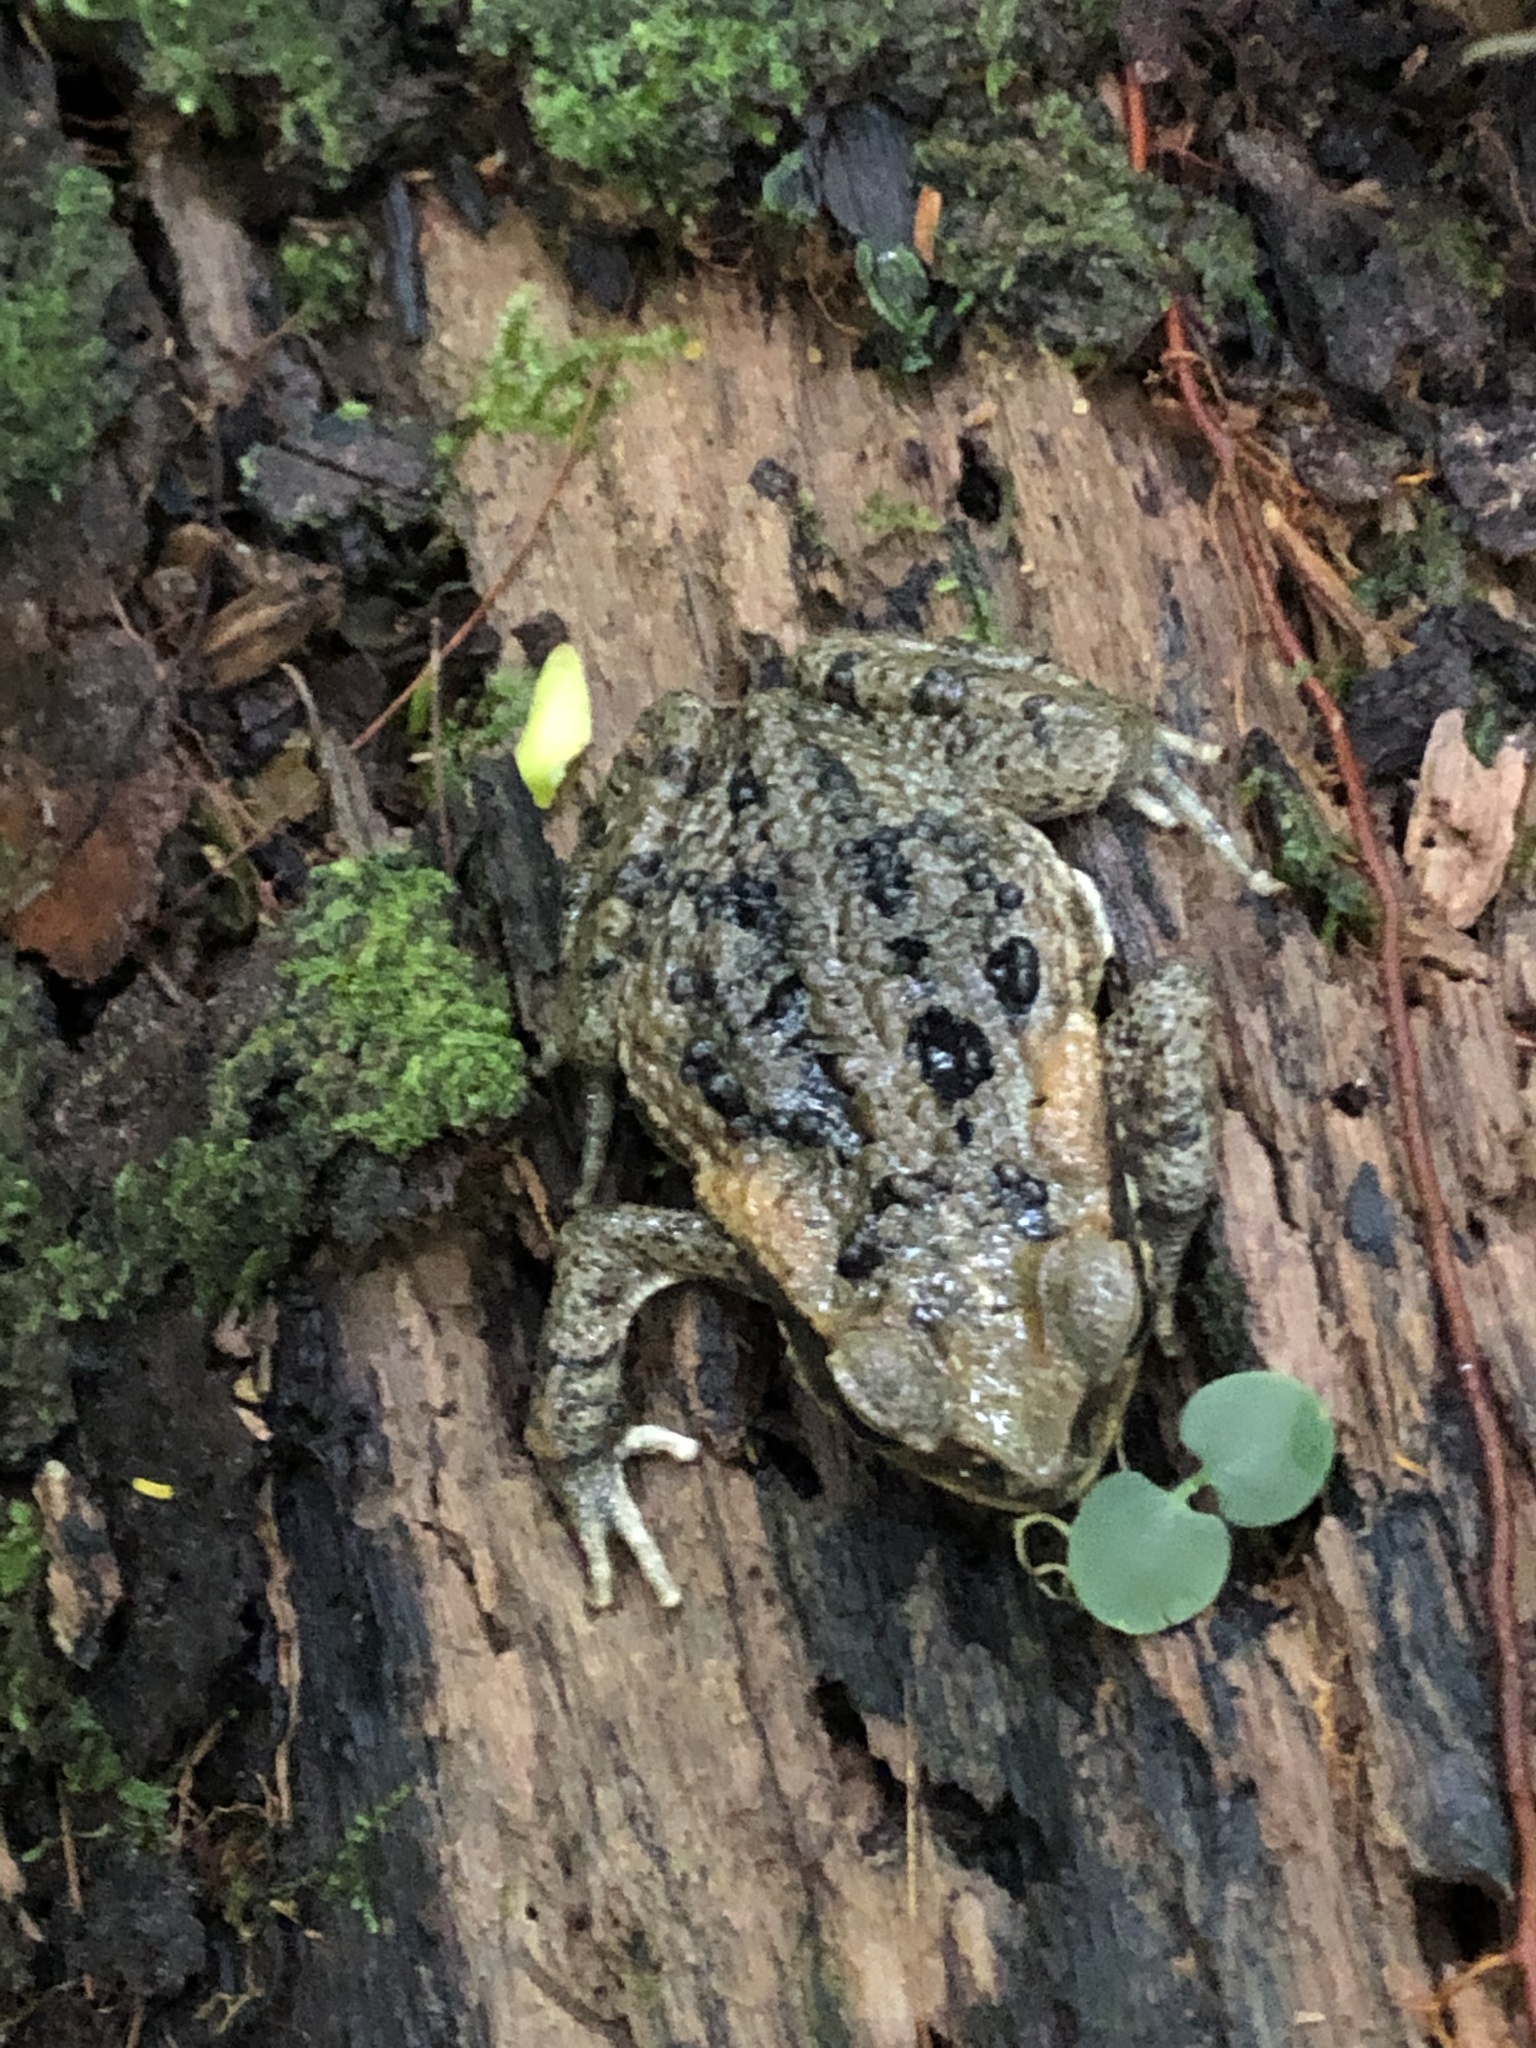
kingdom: Animalia
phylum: Chordata
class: Amphibia
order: Anura
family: Bufonidae
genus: Rhinella
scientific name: Rhinella marina
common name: Cane toad
